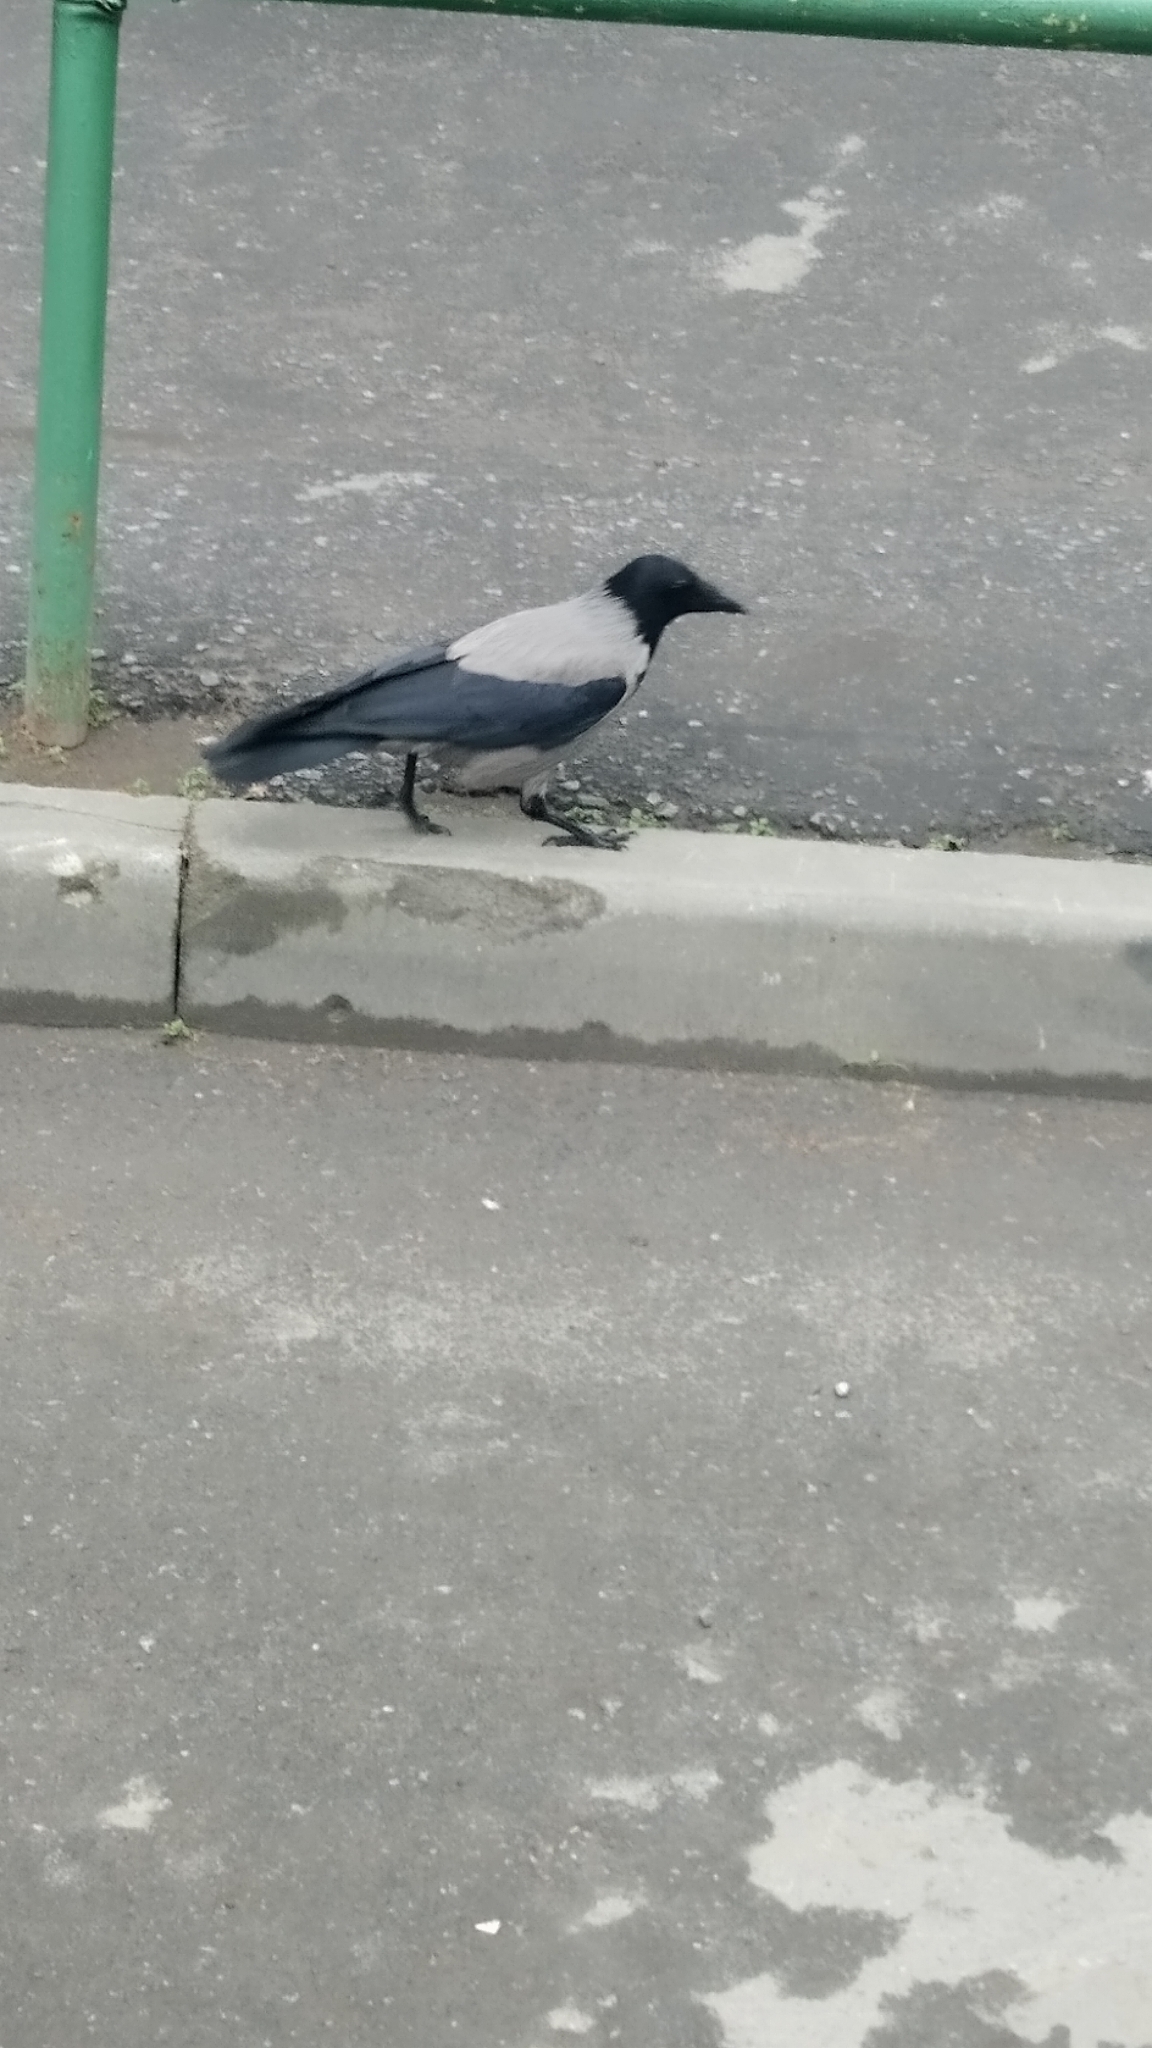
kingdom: Animalia
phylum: Chordata
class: Aves
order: Passeriformes
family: Corvidae
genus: Corvus
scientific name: Corvus cornix
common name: Hooded crow
